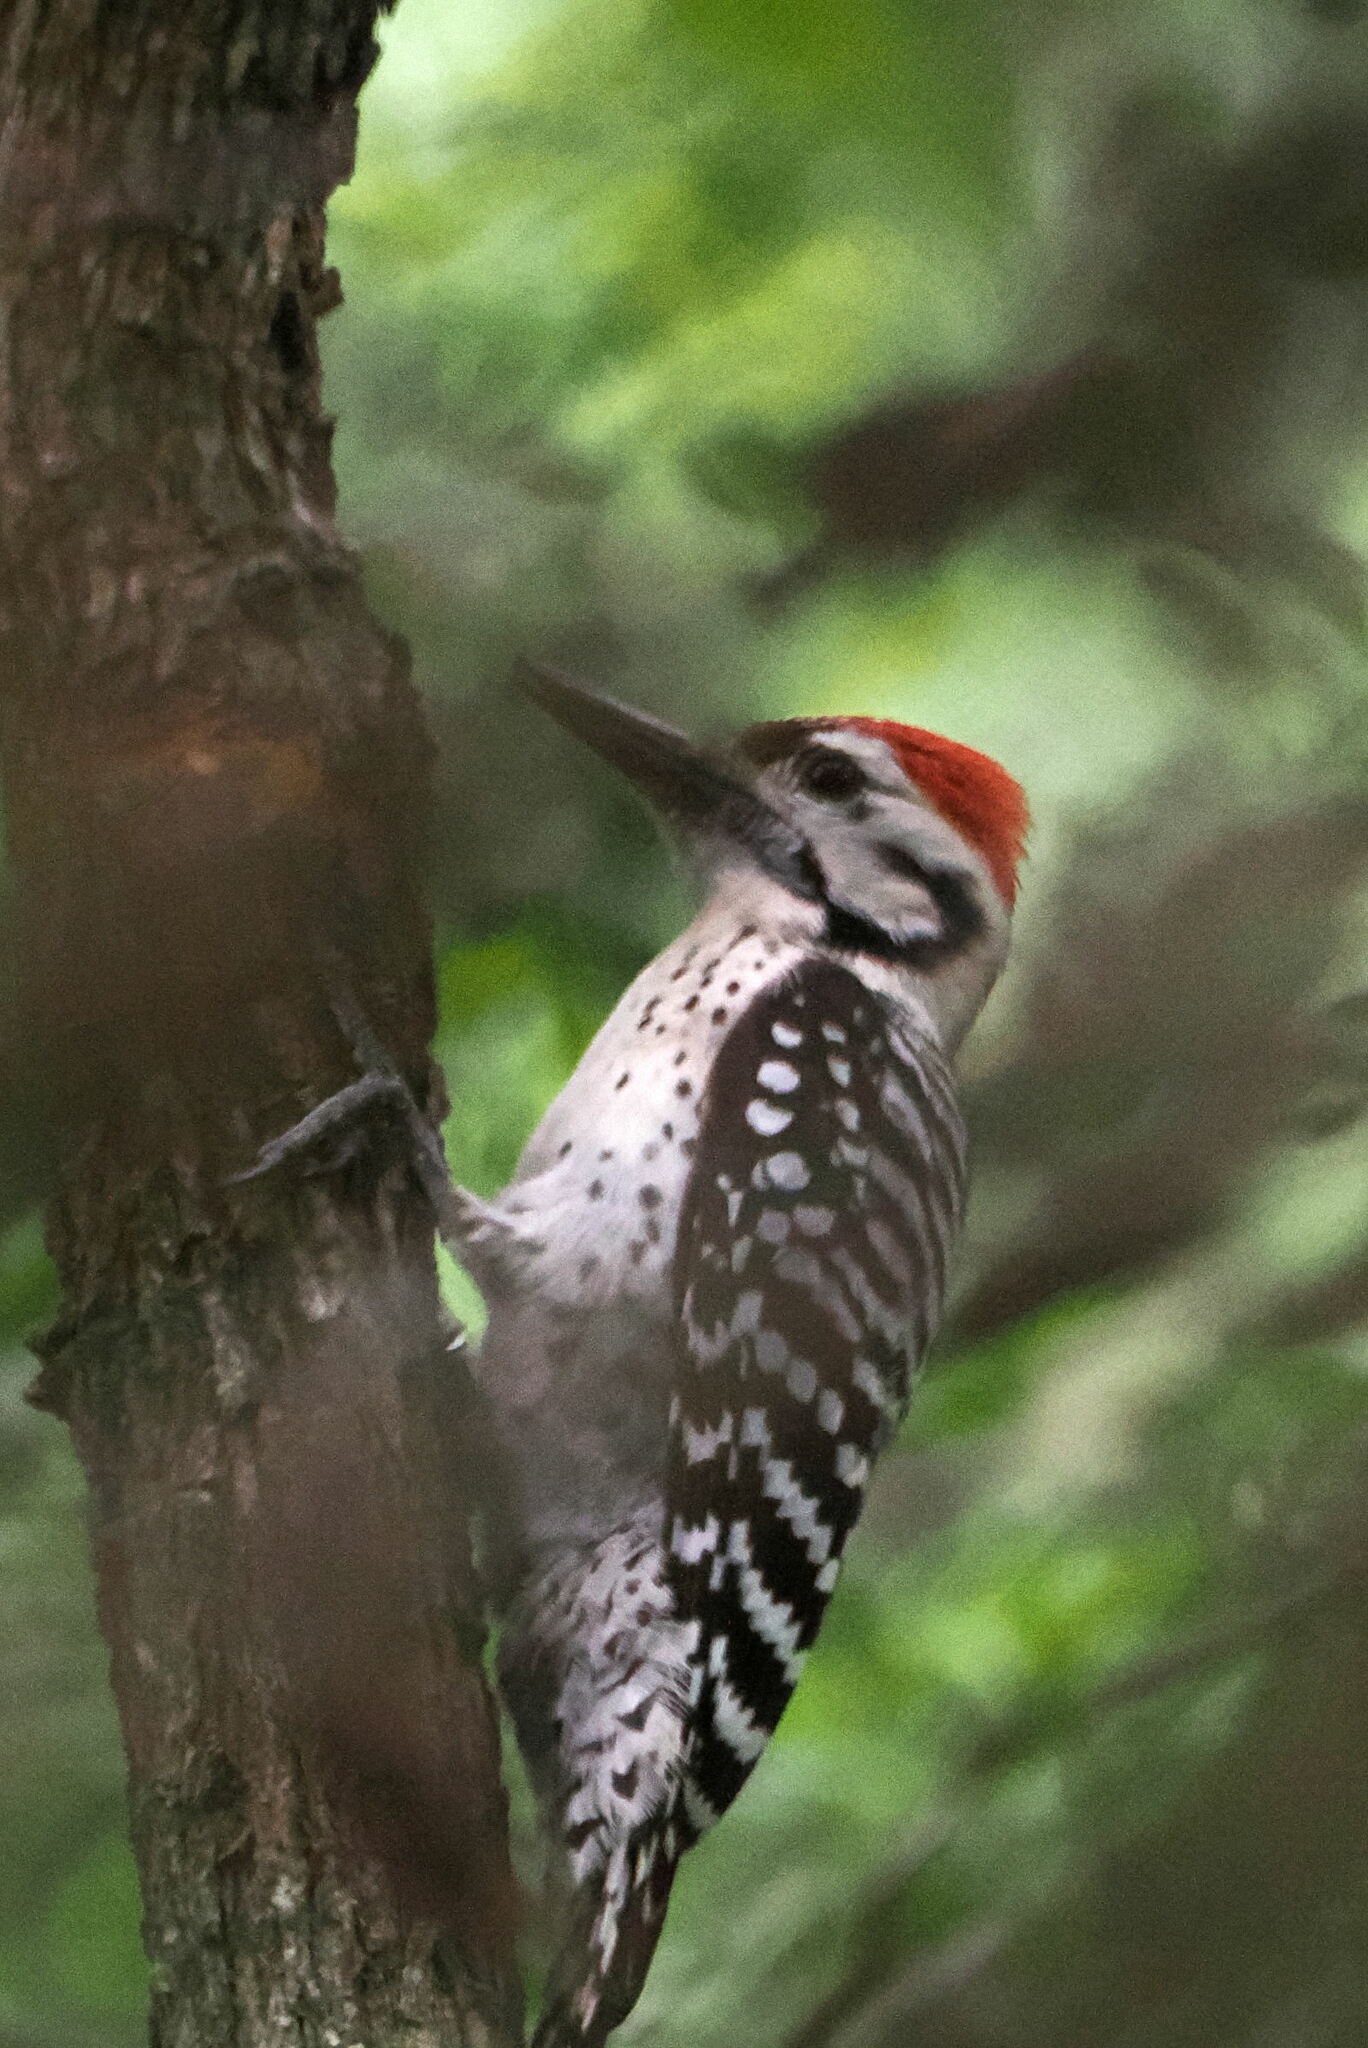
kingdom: Animalia
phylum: Chordata
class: Aves
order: Piciformes
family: Picidae
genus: Dryobates
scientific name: Dryobates scalaris
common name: Ladder-backed woodpecker
